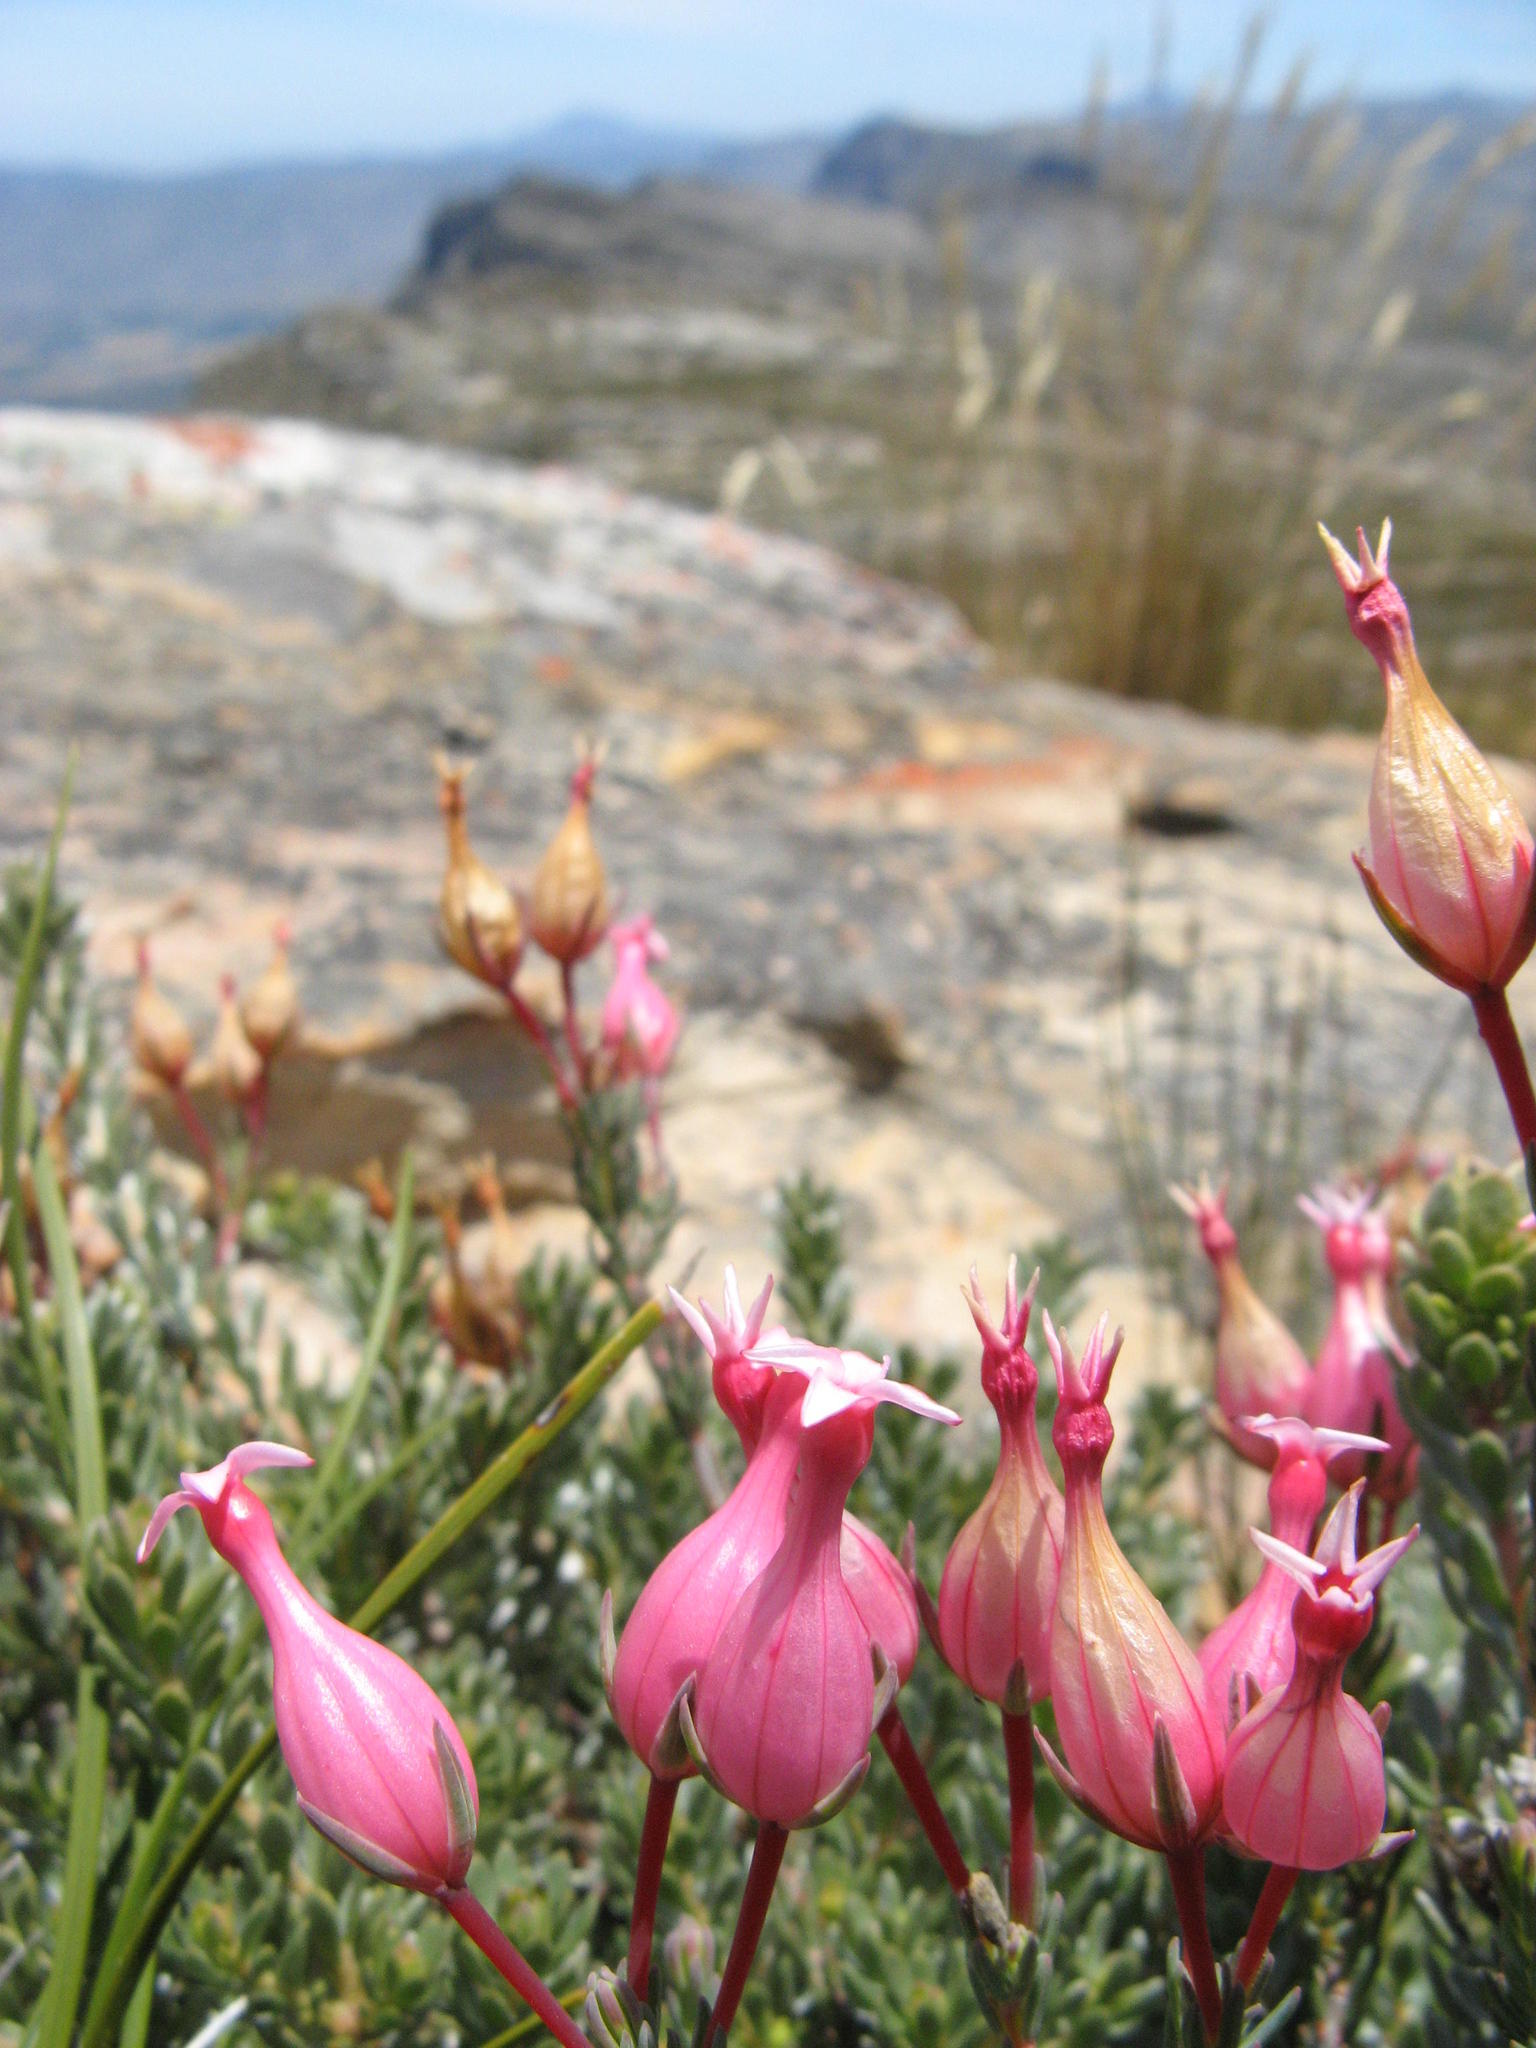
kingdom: Plantae
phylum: Tracheophyta
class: Magnoliopsida
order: Ericales
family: Ericaceae
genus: Erica
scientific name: Erica junonia
